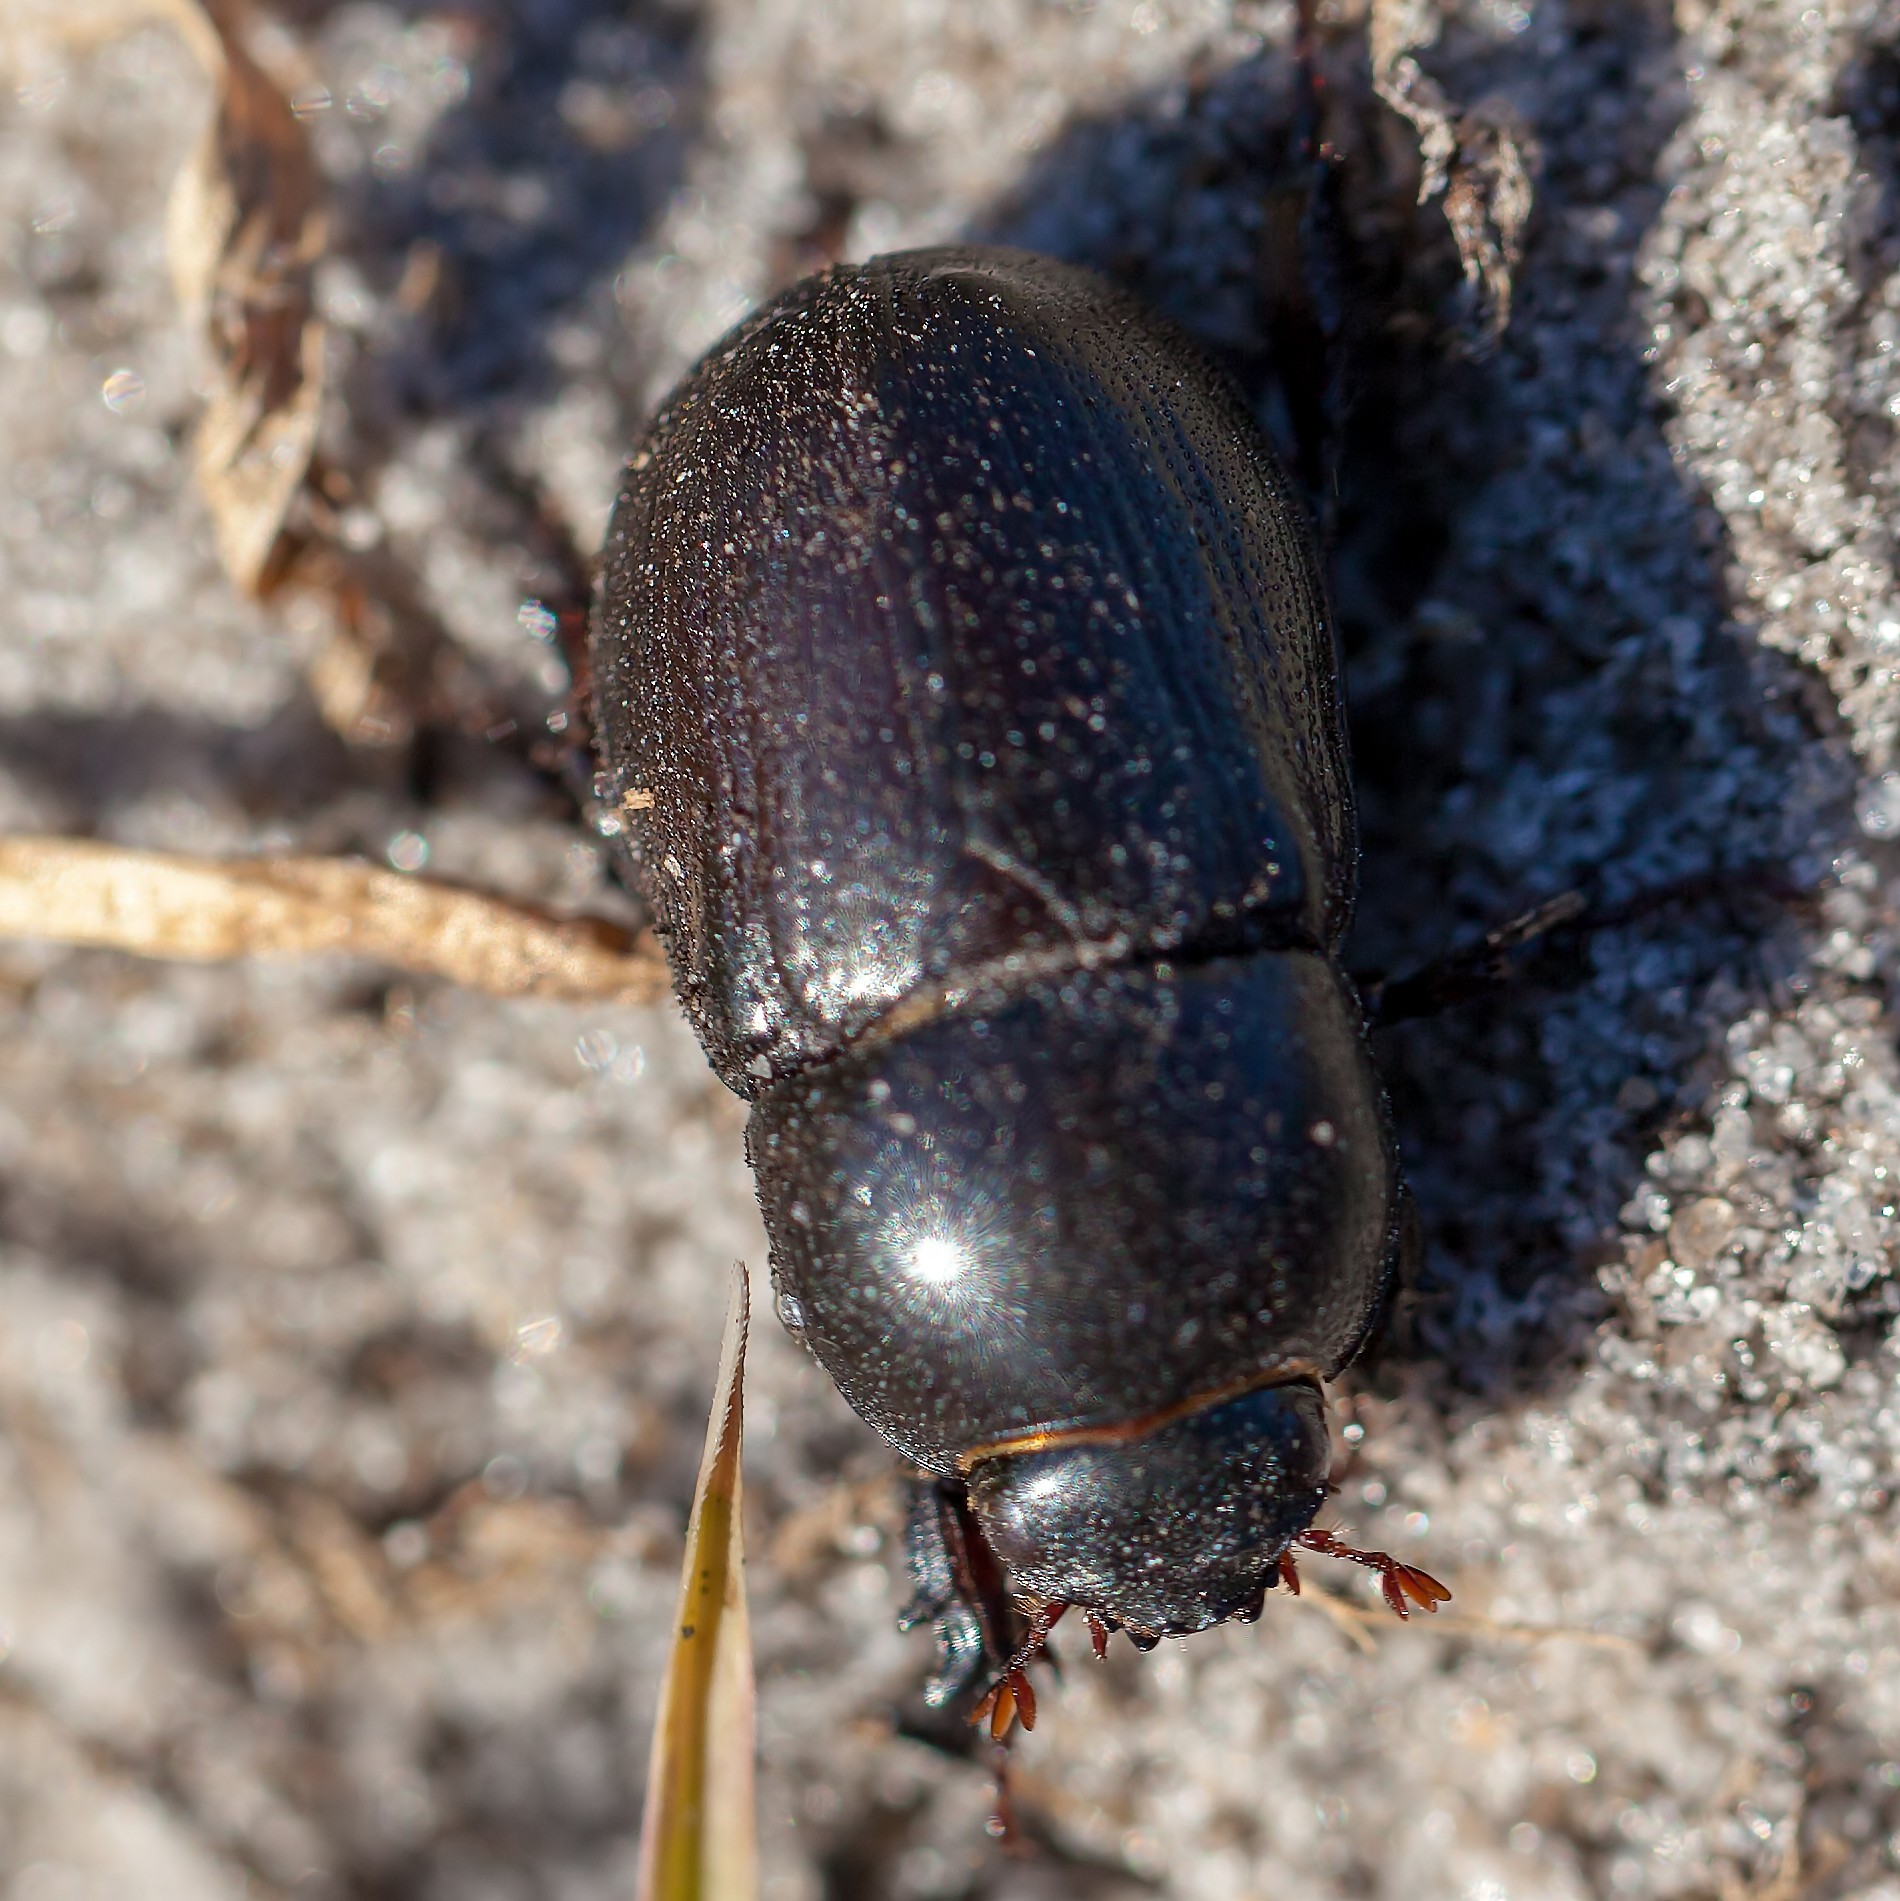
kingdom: Animalia
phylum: Arthropoda
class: Insecta
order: Coleoptera
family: Scarabaeidae
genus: Euetheola
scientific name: Euetheola humilis
